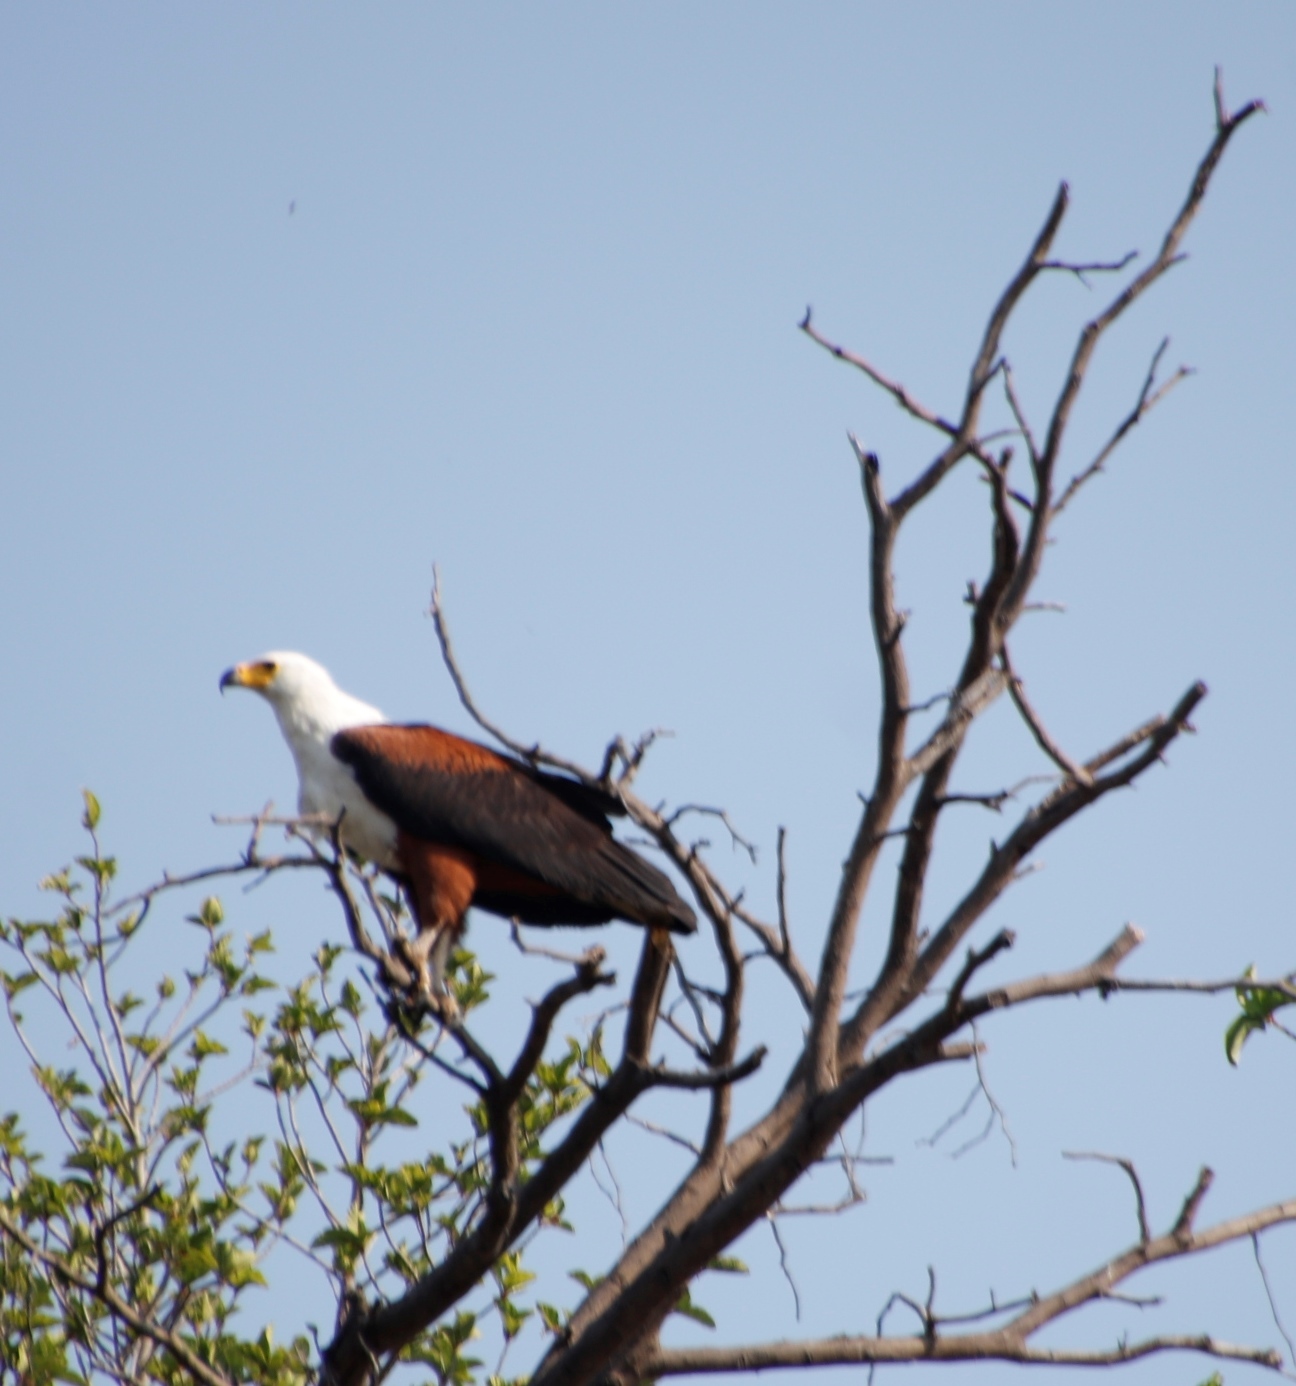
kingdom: Animalia
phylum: Chordata
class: Aves
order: Accipitriformes
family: Accipitridae
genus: Haliaeetus
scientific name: Haliaeetus vocifer
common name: African fish eagle
